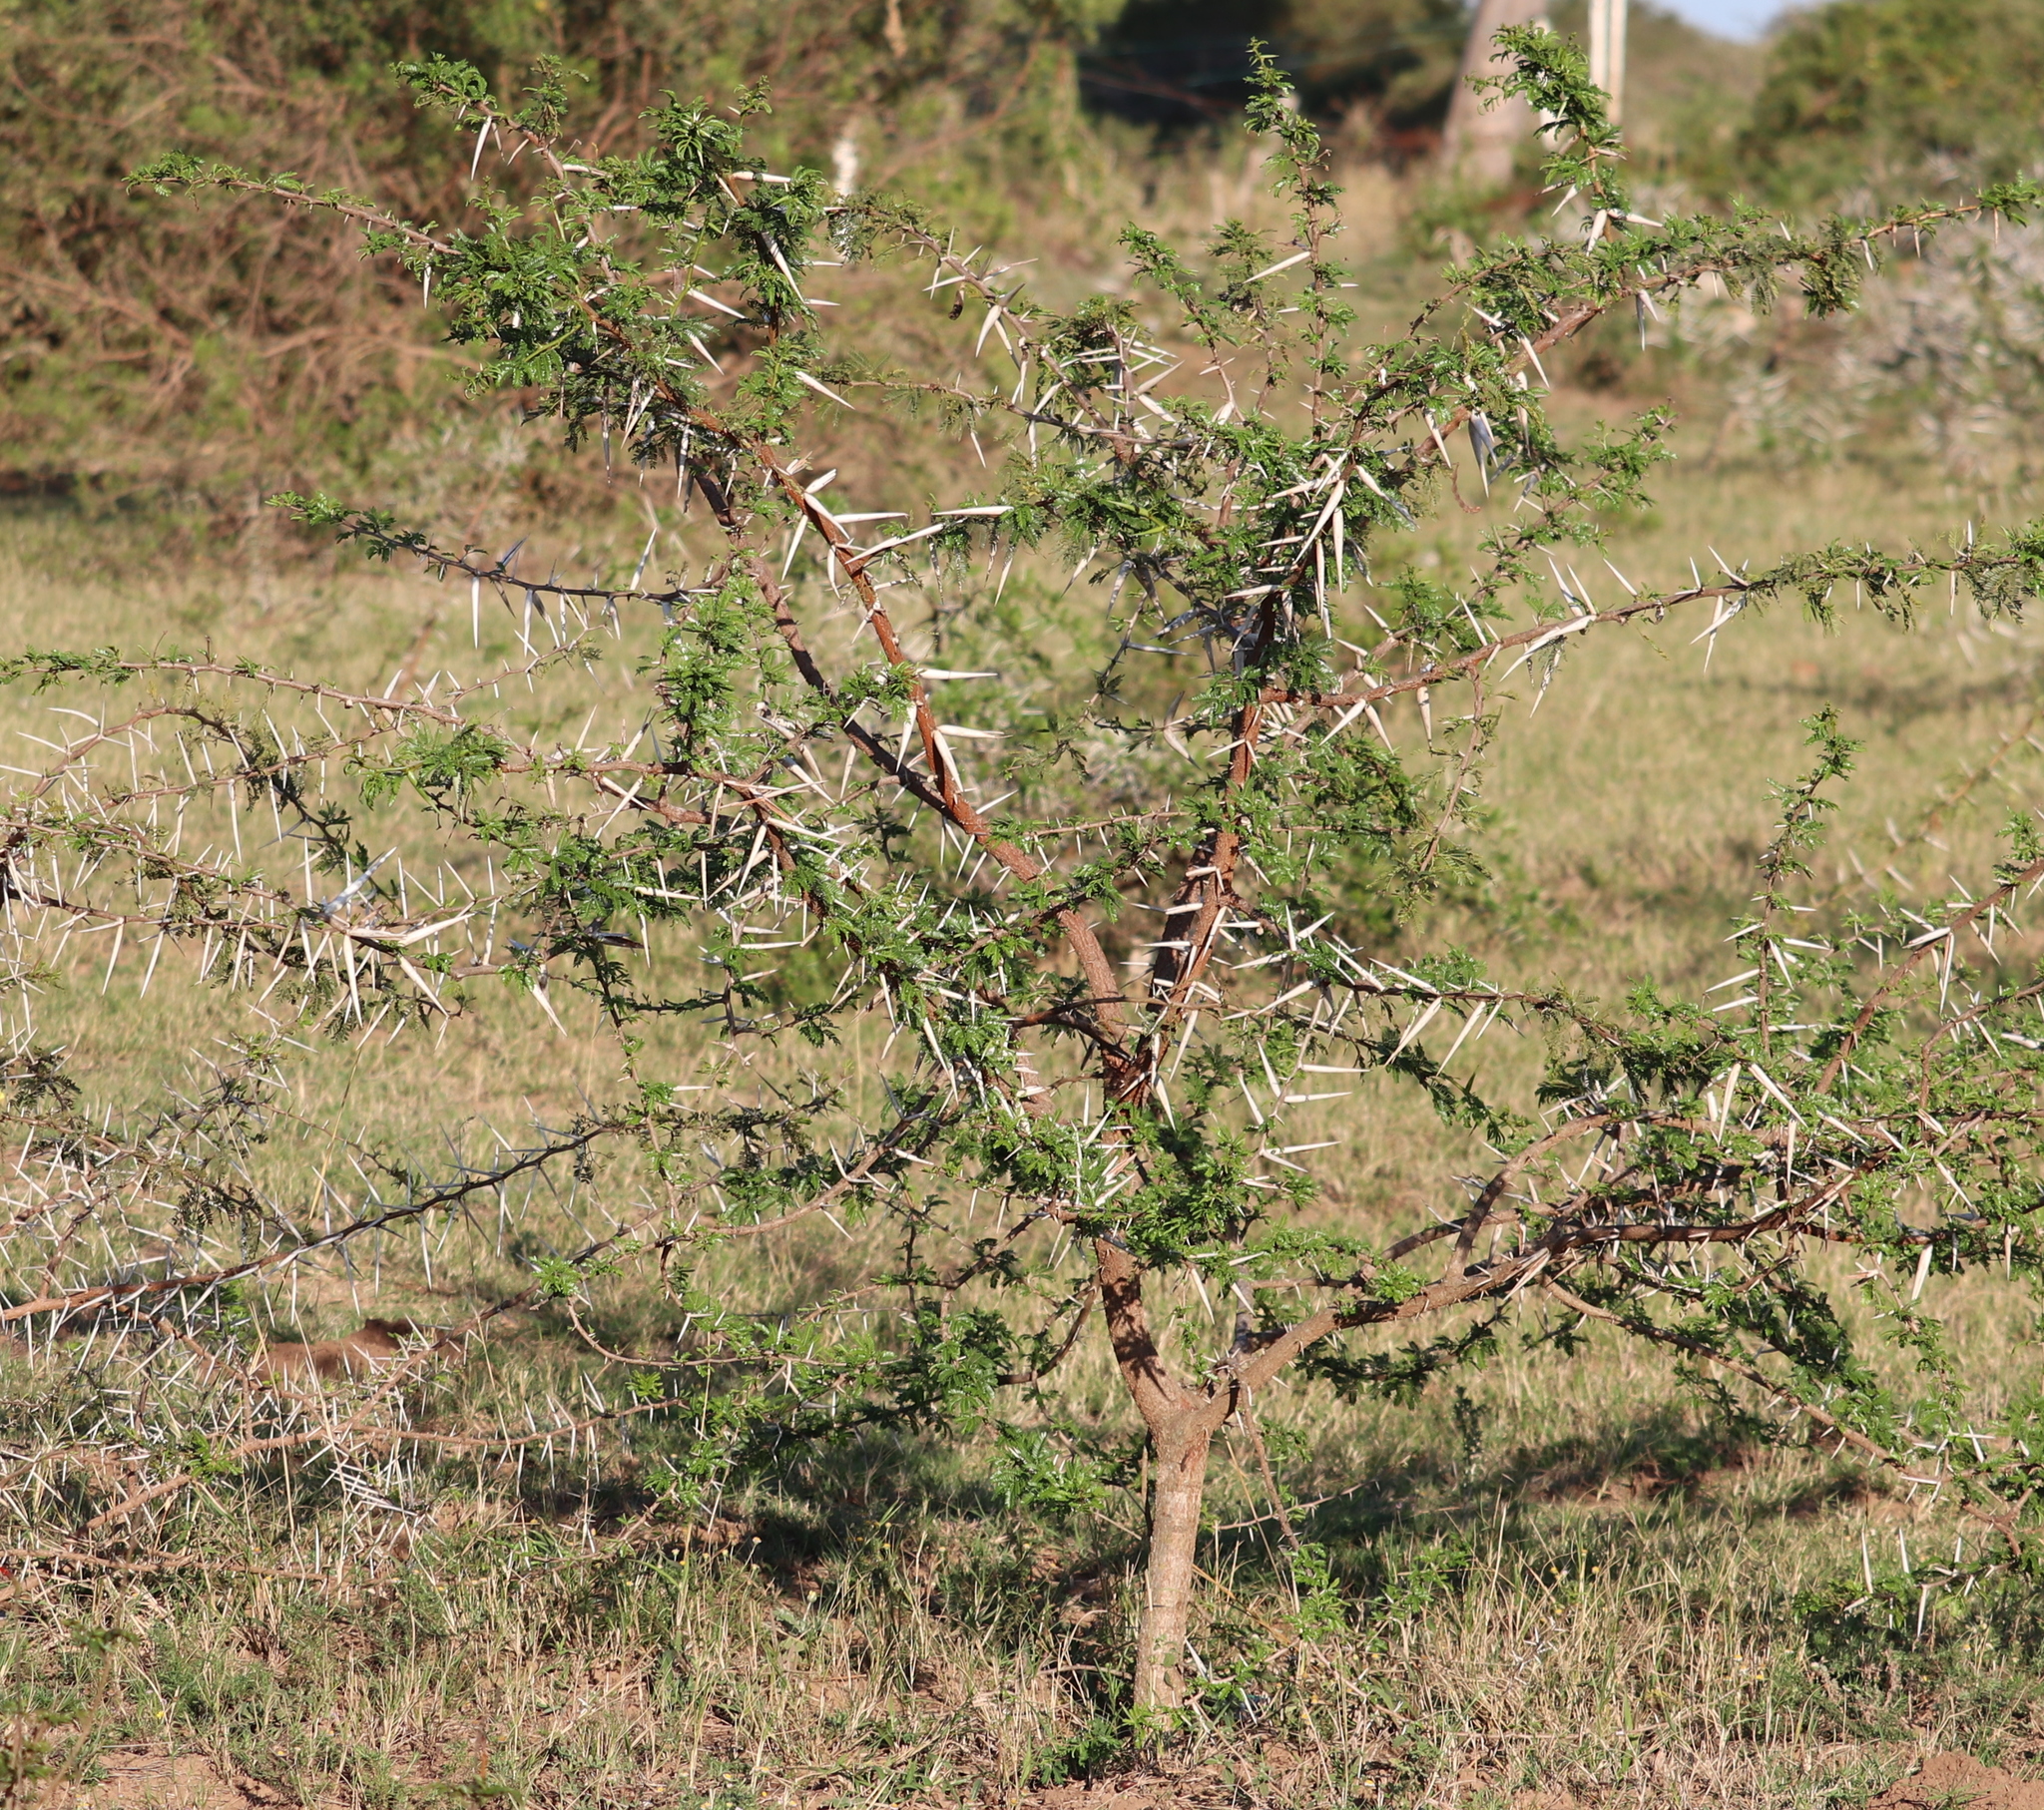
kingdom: Plantae
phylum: Tracheophyta
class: Magnoliopsida
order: Fabales
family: Fabaceae
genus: Vachellia
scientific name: Vachellia karroo
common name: Sweet thorn
